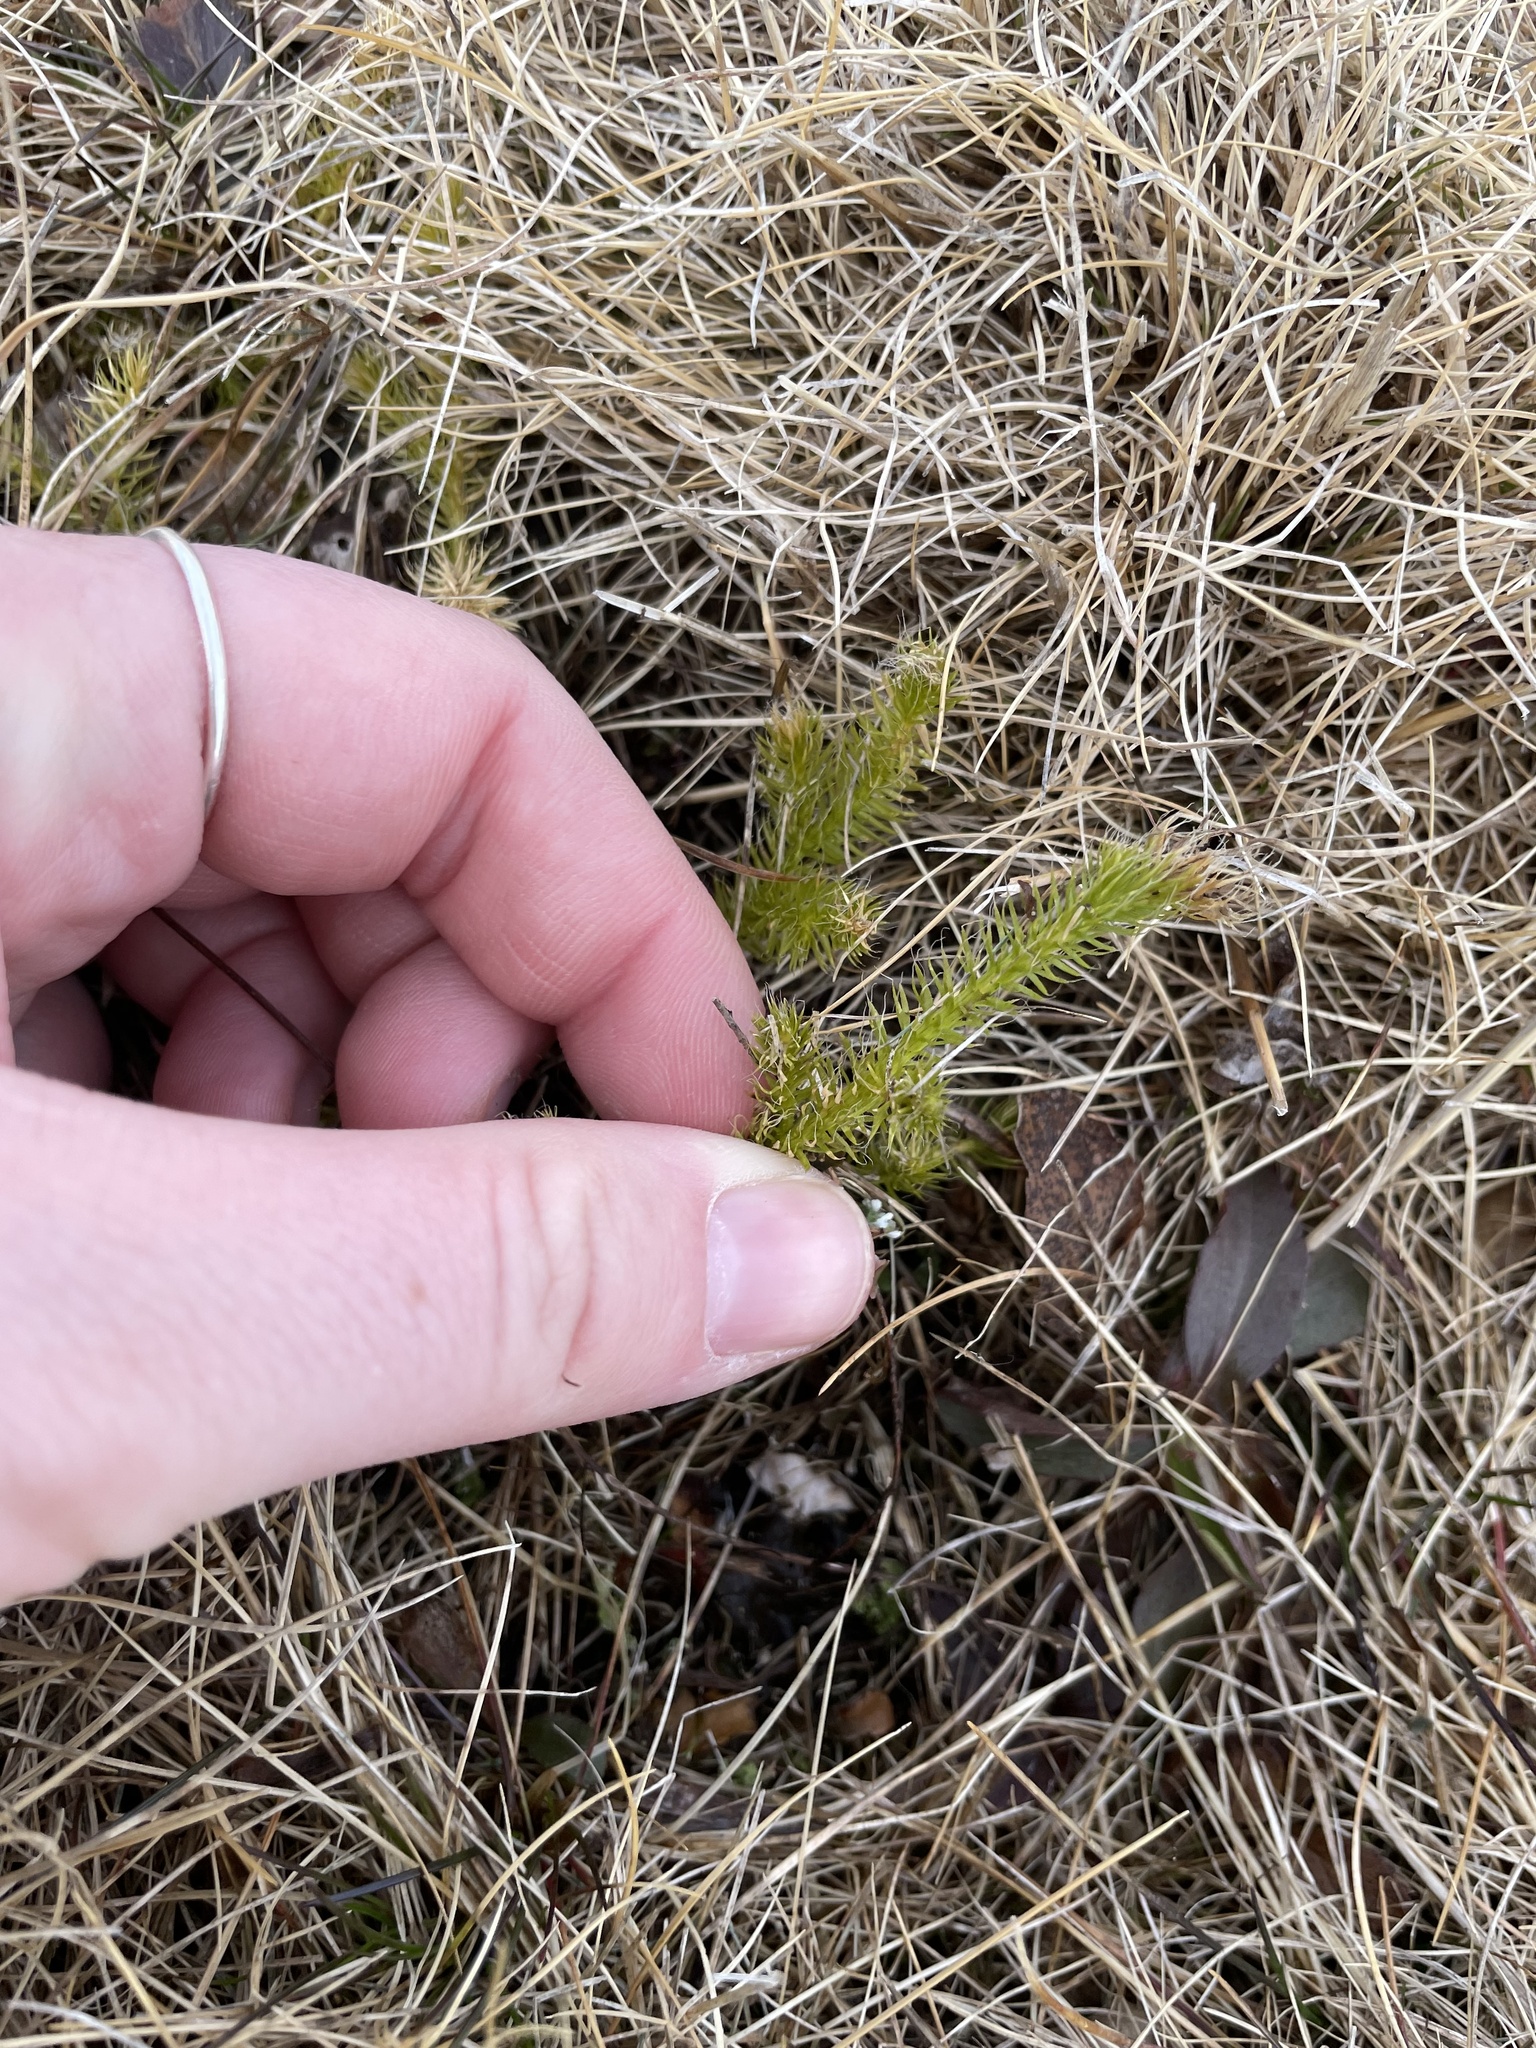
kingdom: Plantae
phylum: Tracheophyta
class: Lycopodiopsida
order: Lycopodiales
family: Lycopodiaceae
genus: Lycopodium
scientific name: Lycopodium clavatum
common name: Stag's-horn clubmoss
